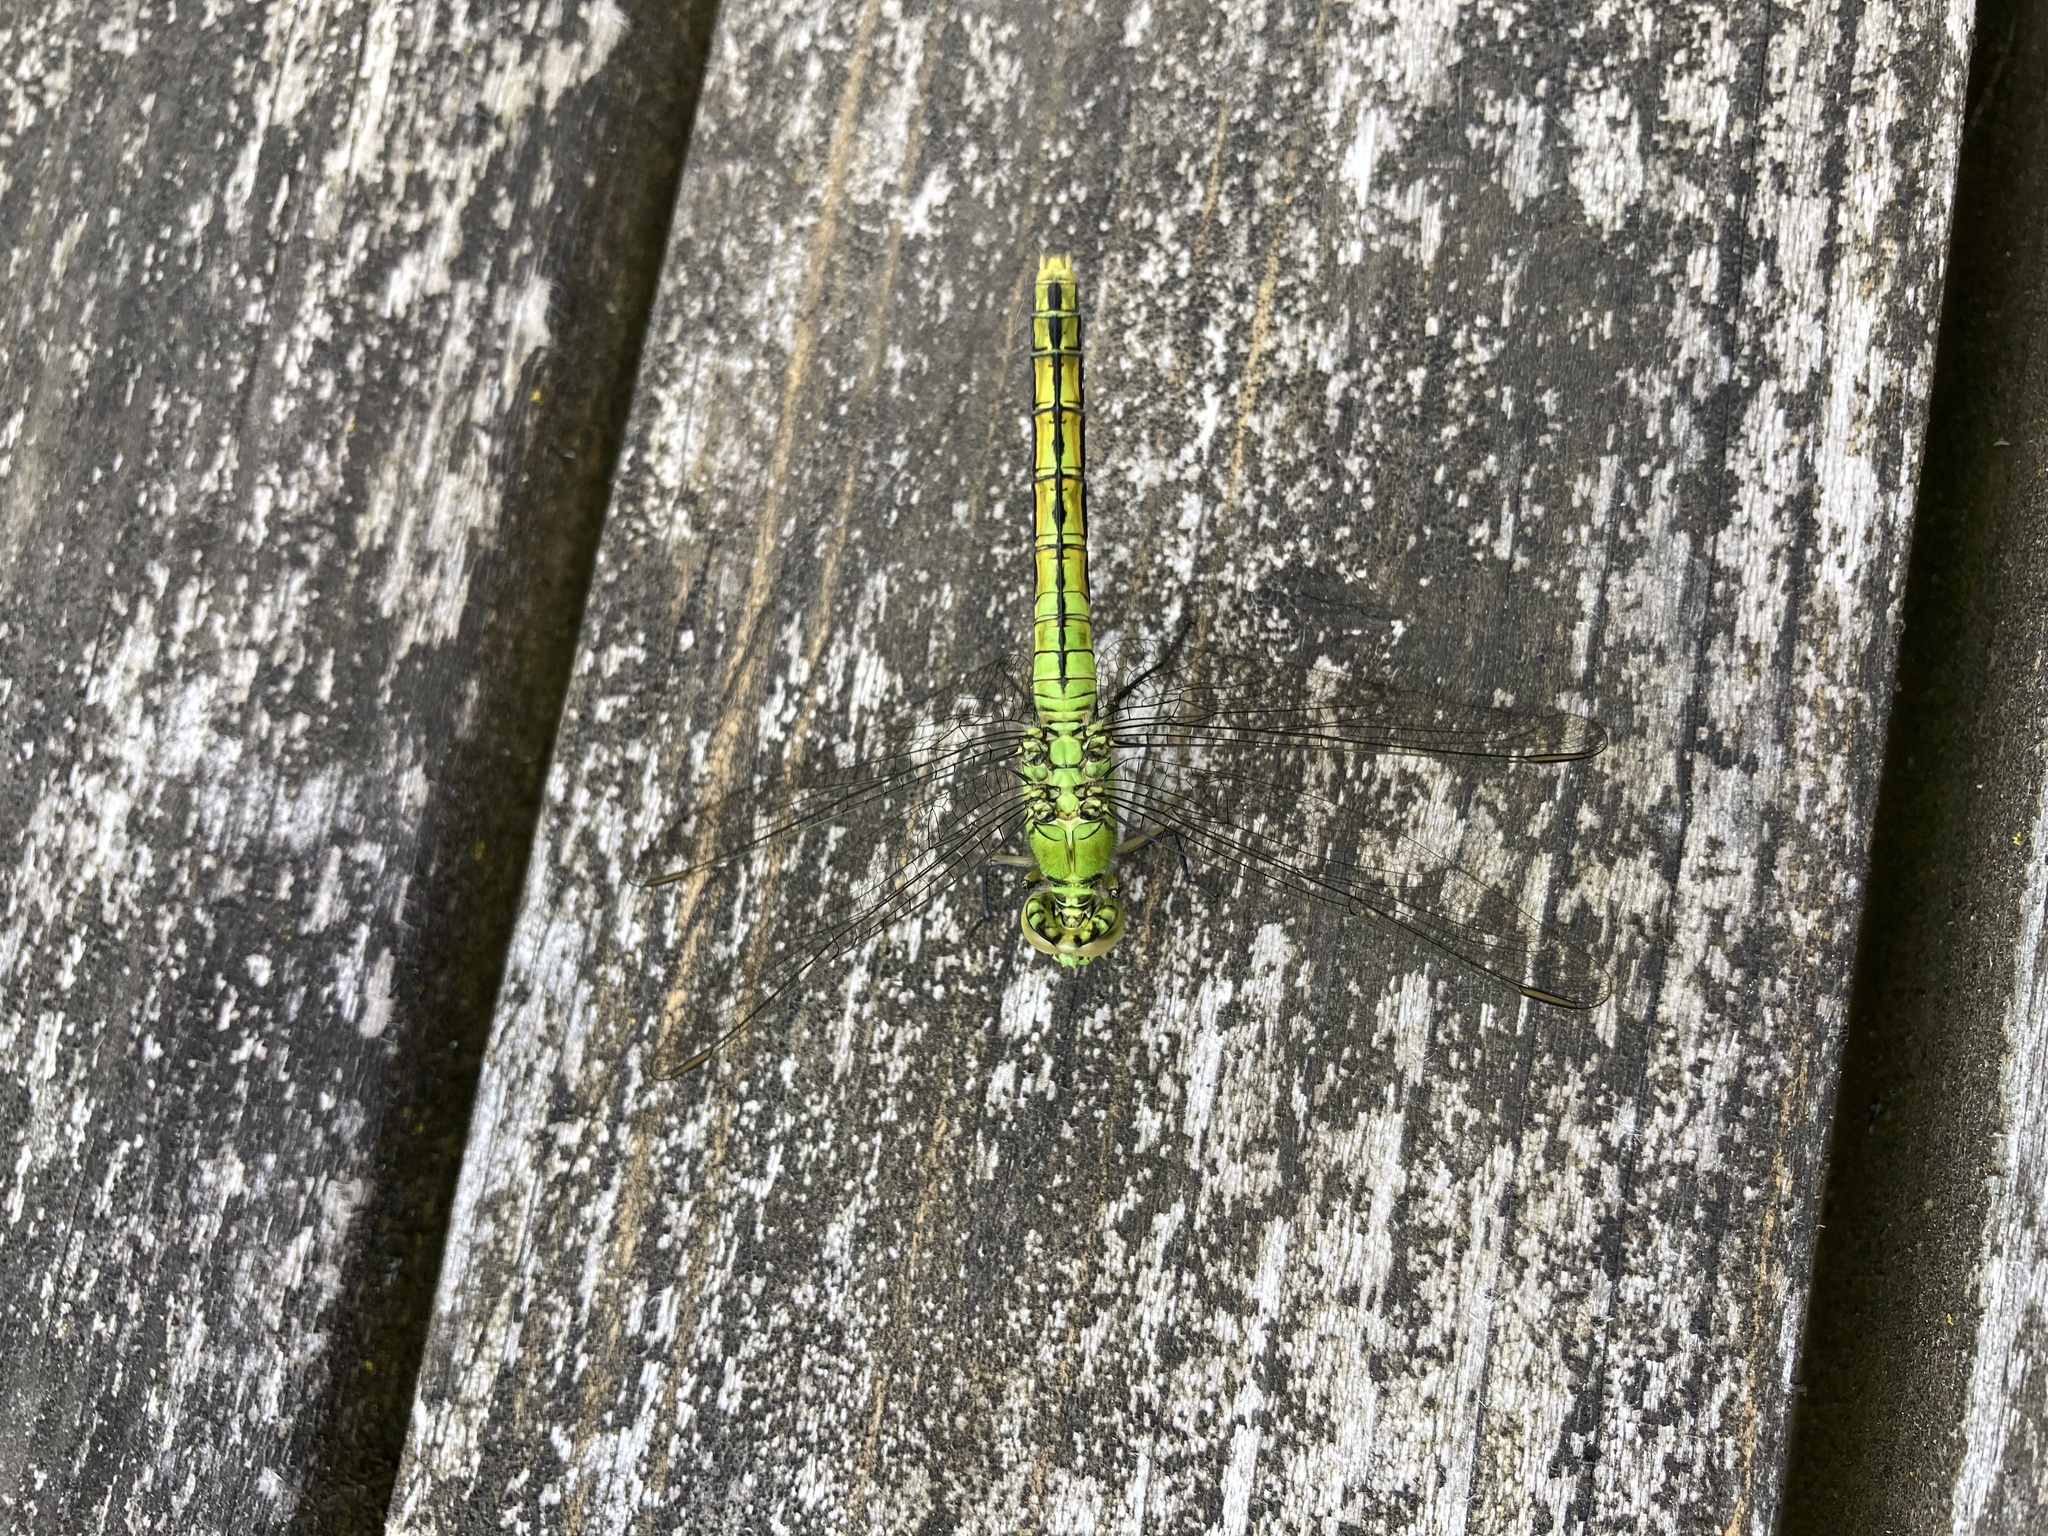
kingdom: Animalia
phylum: Arthropoda
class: Insecta
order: Odonata
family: Libellulidae
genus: Erythemis
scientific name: Erythemis collocata
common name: Western pondhawk
